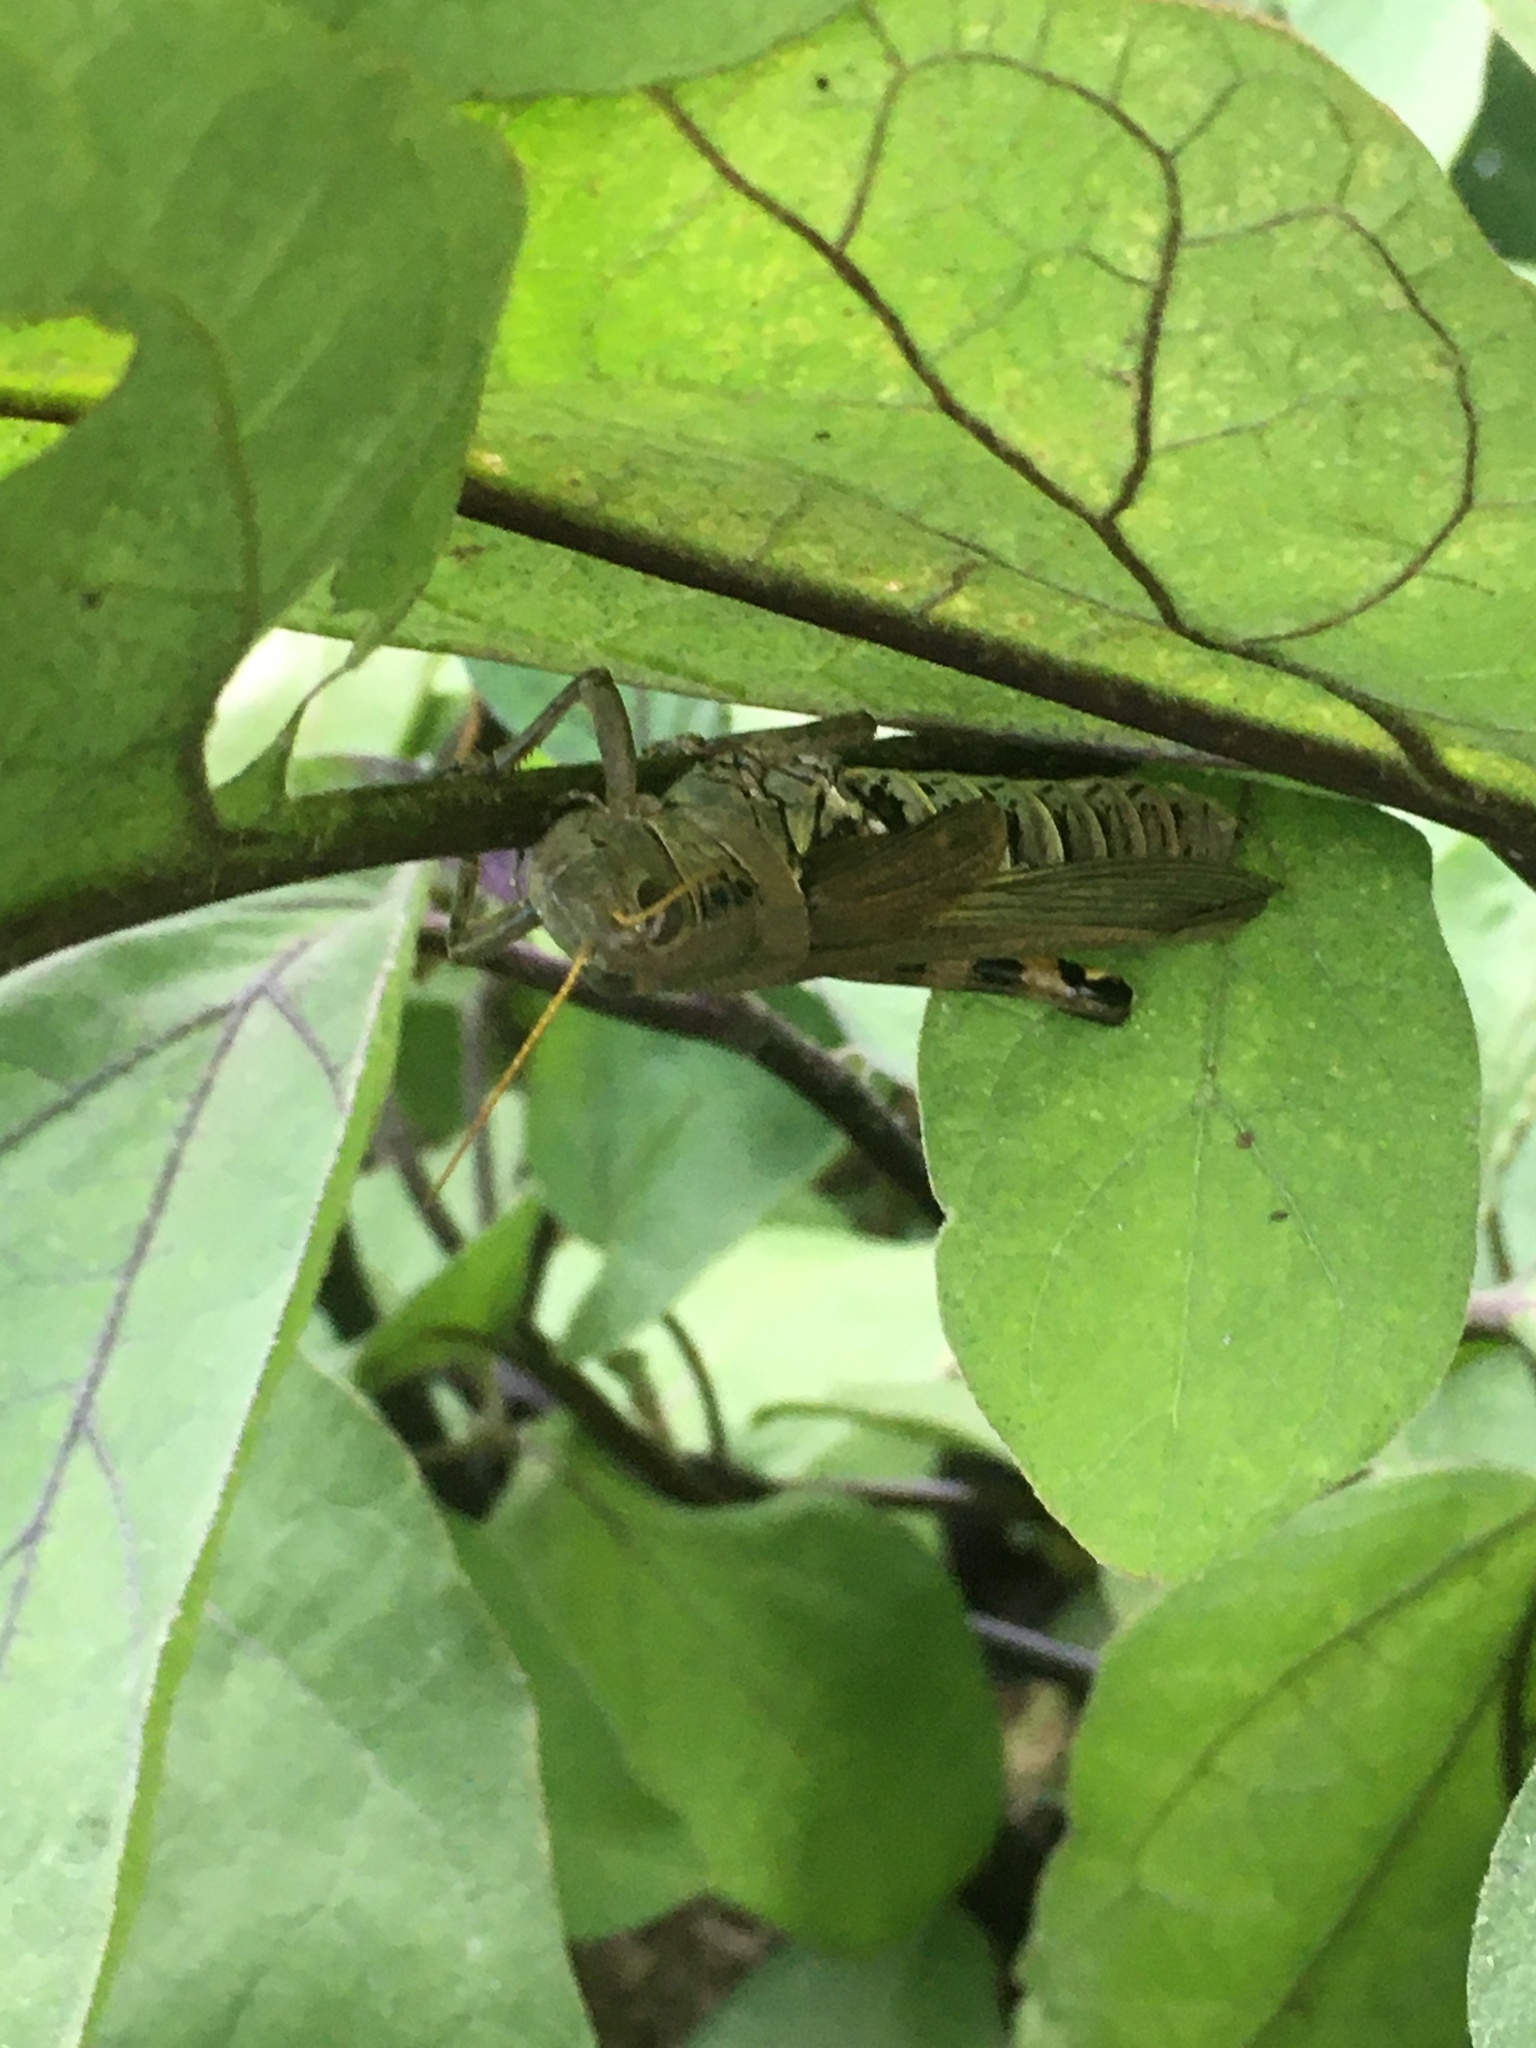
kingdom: Animalia
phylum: Arthropoda
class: Insecta
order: Orthoptera
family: Acrididae
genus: Melanoplus
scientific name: Melanoplus differentialis
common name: Differential grasshopper
